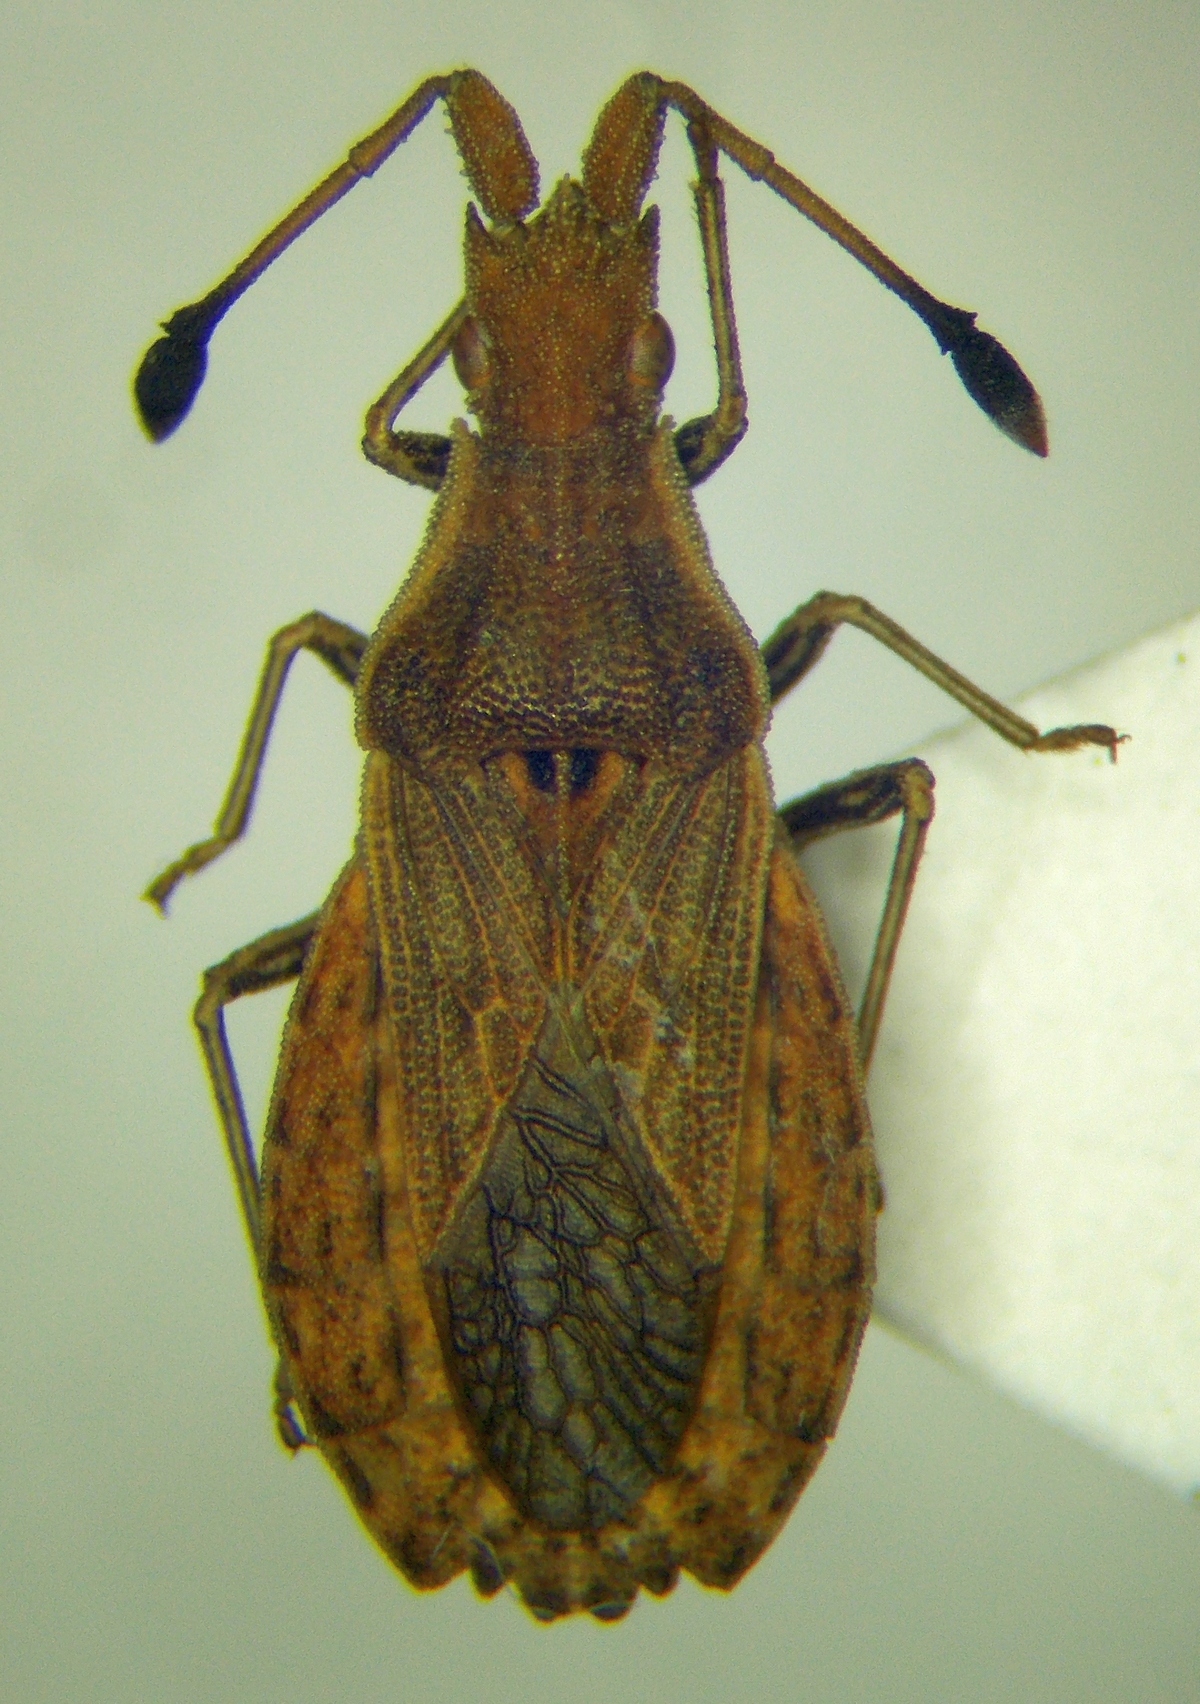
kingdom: Animalia
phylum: Arthropoda
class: Insecta
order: Hemiptera
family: Coreidae
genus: Spathocera
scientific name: Spathocera lobata
